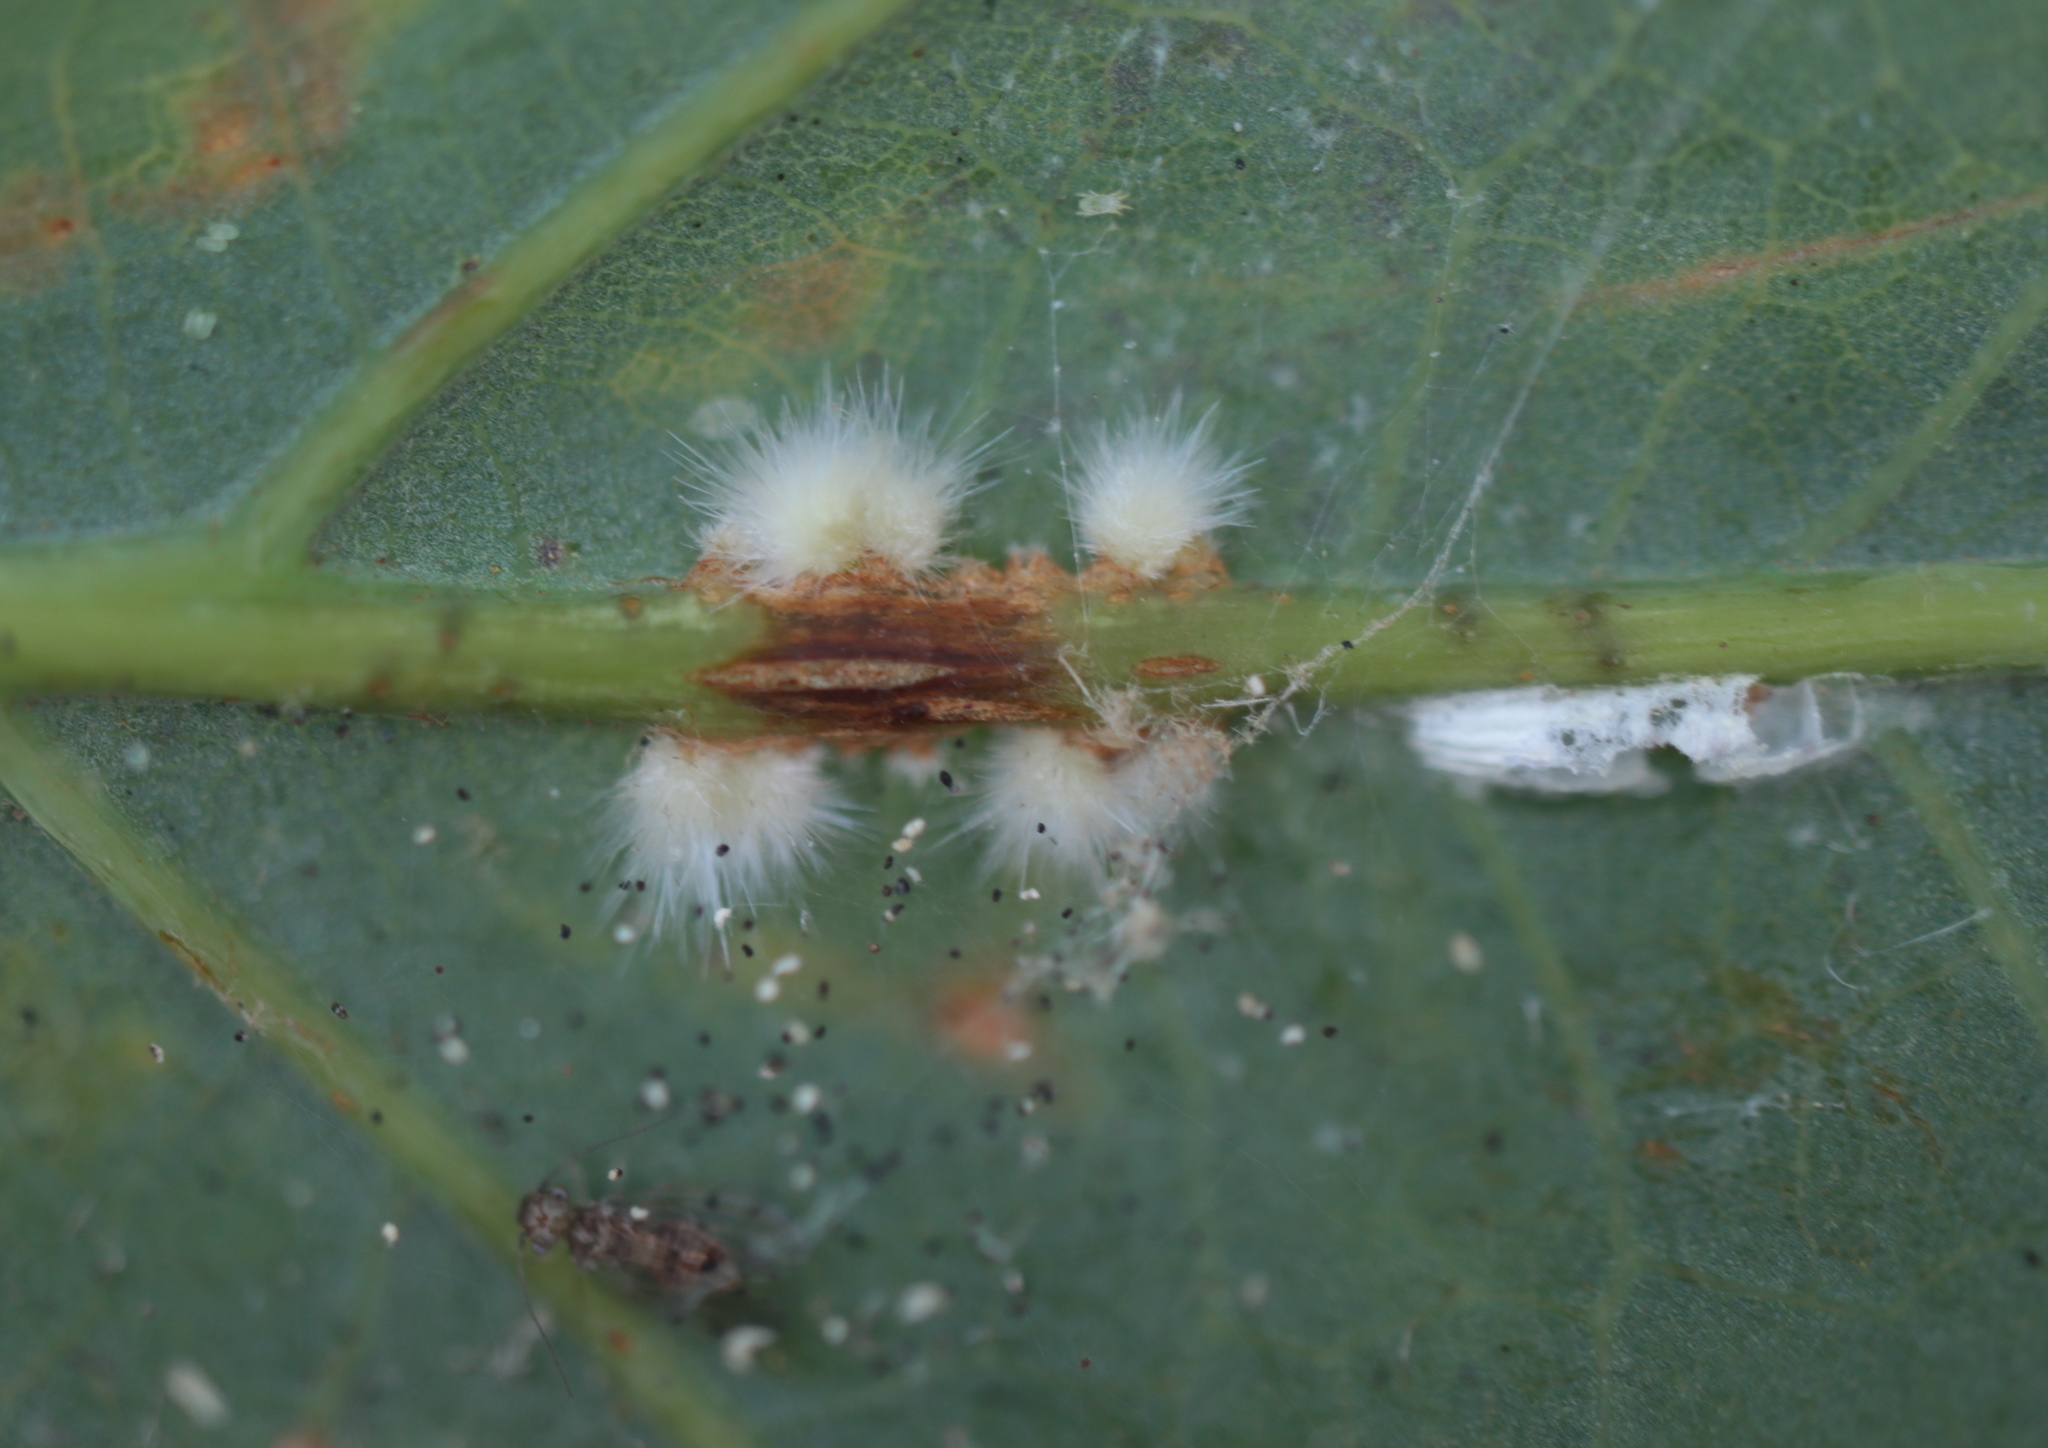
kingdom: Animalia
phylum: Arthropoda
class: Insecta
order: Hymenoptera
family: Cynipidae
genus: Andricus
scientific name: Andricus
